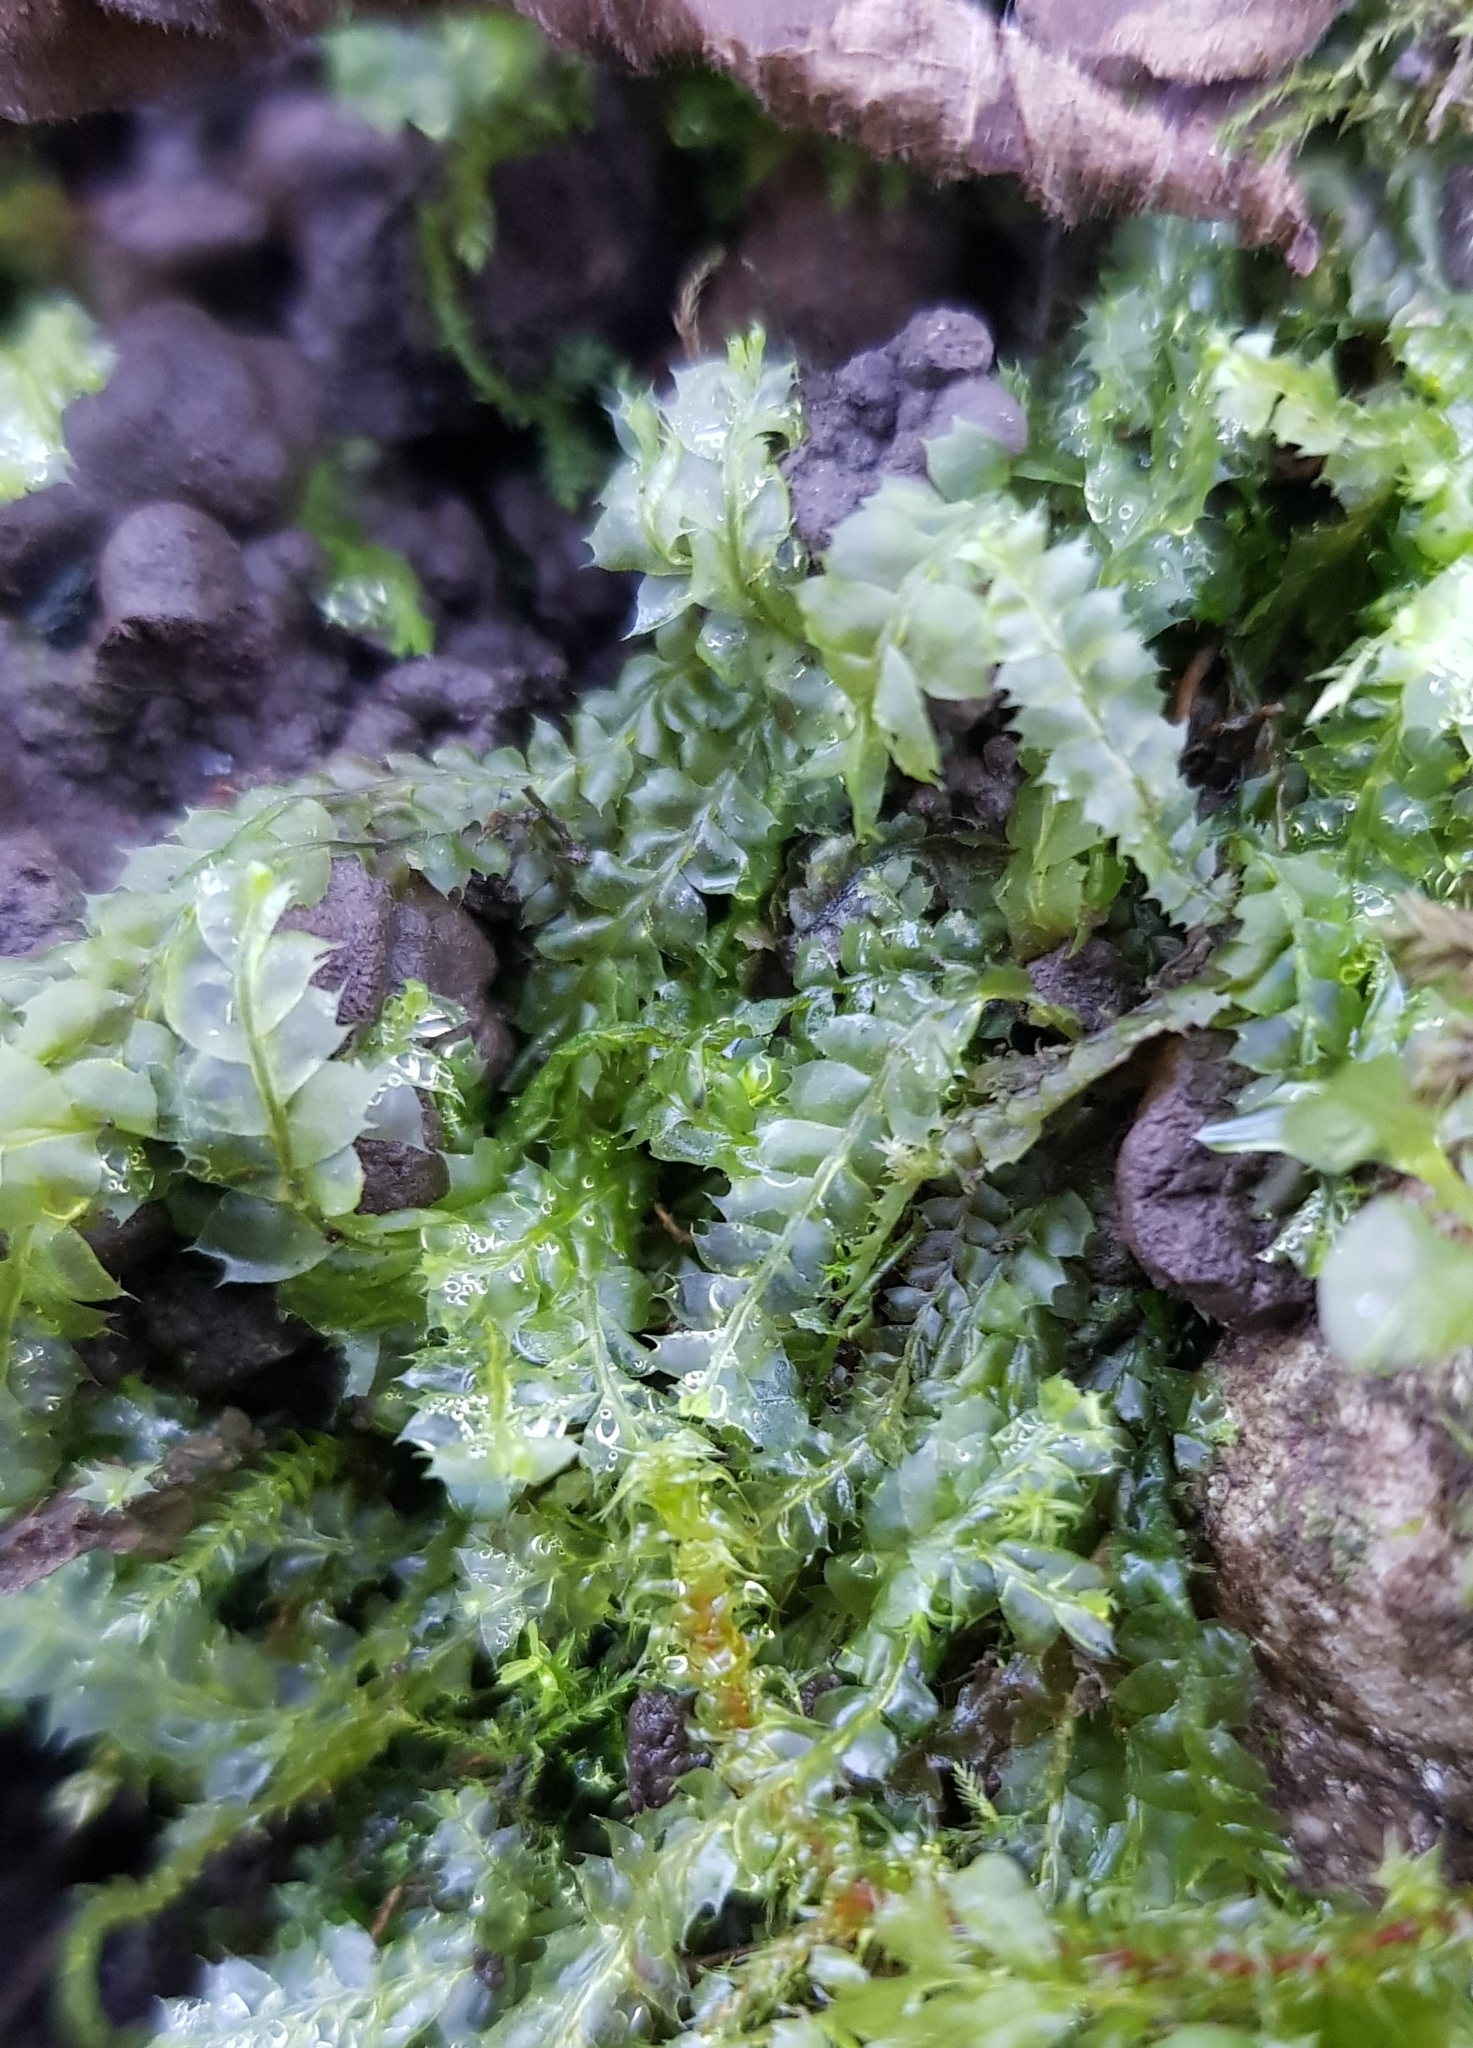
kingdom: Plantae
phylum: Marchantiophyta
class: Jungermanniopsida
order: Jungermanniales
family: Lophocoleaceae
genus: Lophocolea
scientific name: Lophocolea bidentata
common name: Bifid crestwort
